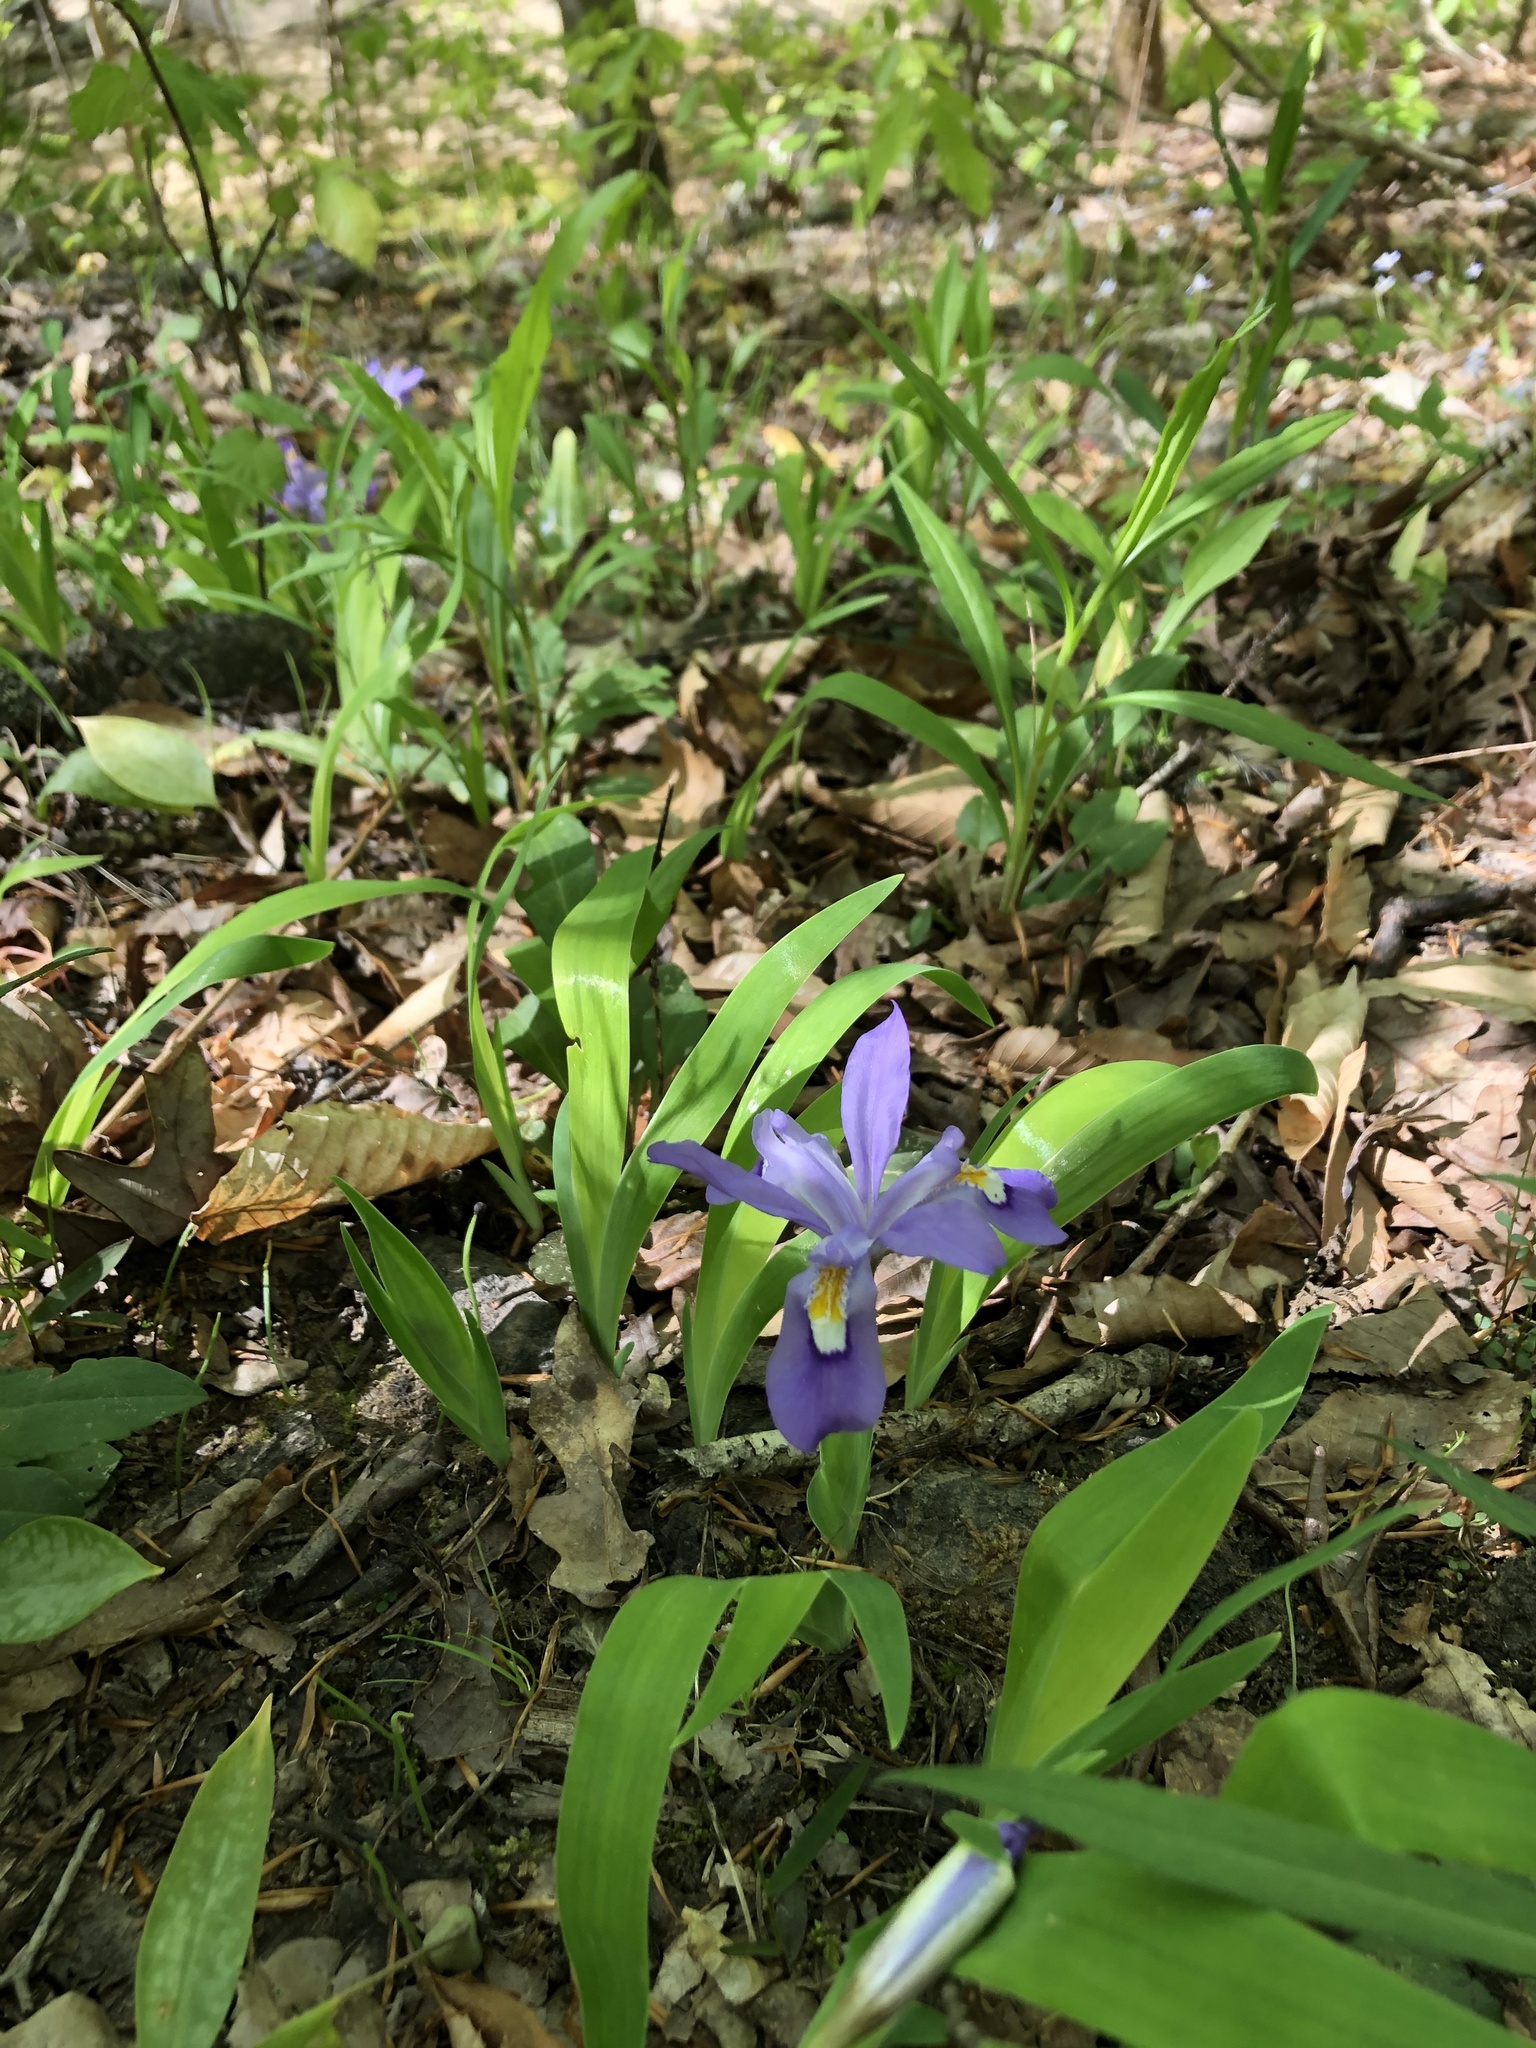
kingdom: Plantae
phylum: Tracheophyta
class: Liliopsida
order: Asparagales
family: Iridaceae
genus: Iris
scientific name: Iris cristata
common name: Crested iris
